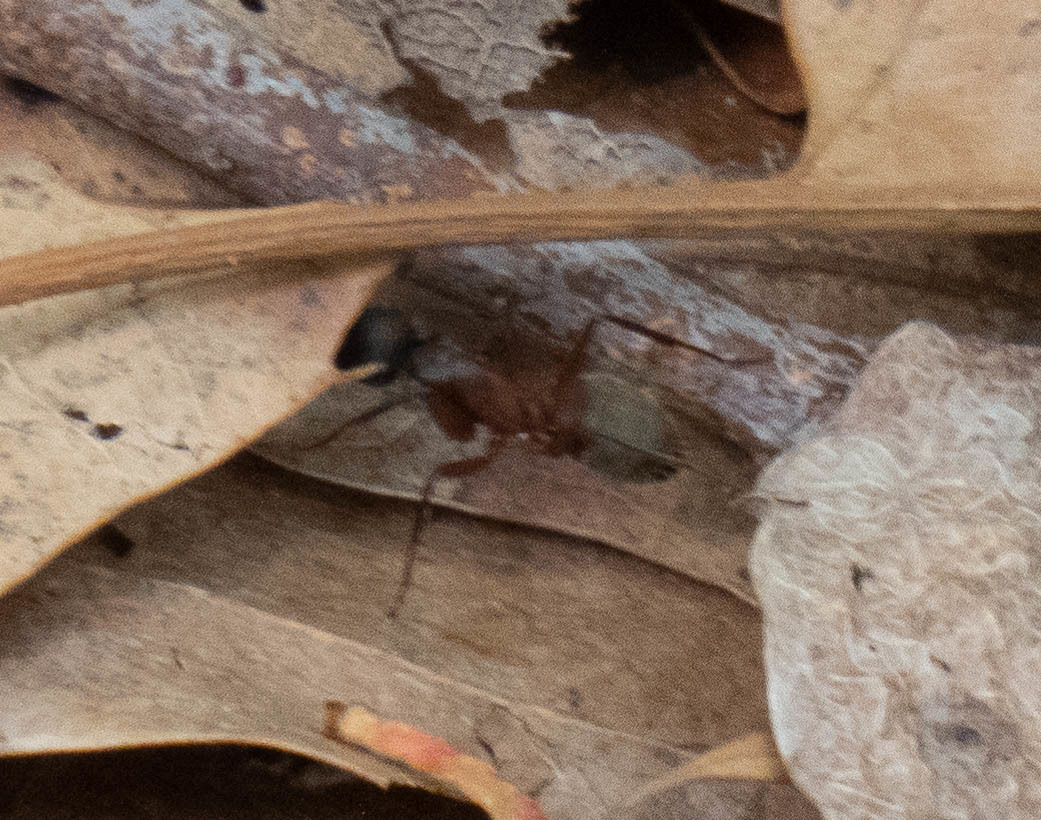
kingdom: Animalia
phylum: Arthropoda
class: Insecta
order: Hymenoptera
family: Formicidae
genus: Camponotus
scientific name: Camponotus chromaiodes
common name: Red carpenter ant
